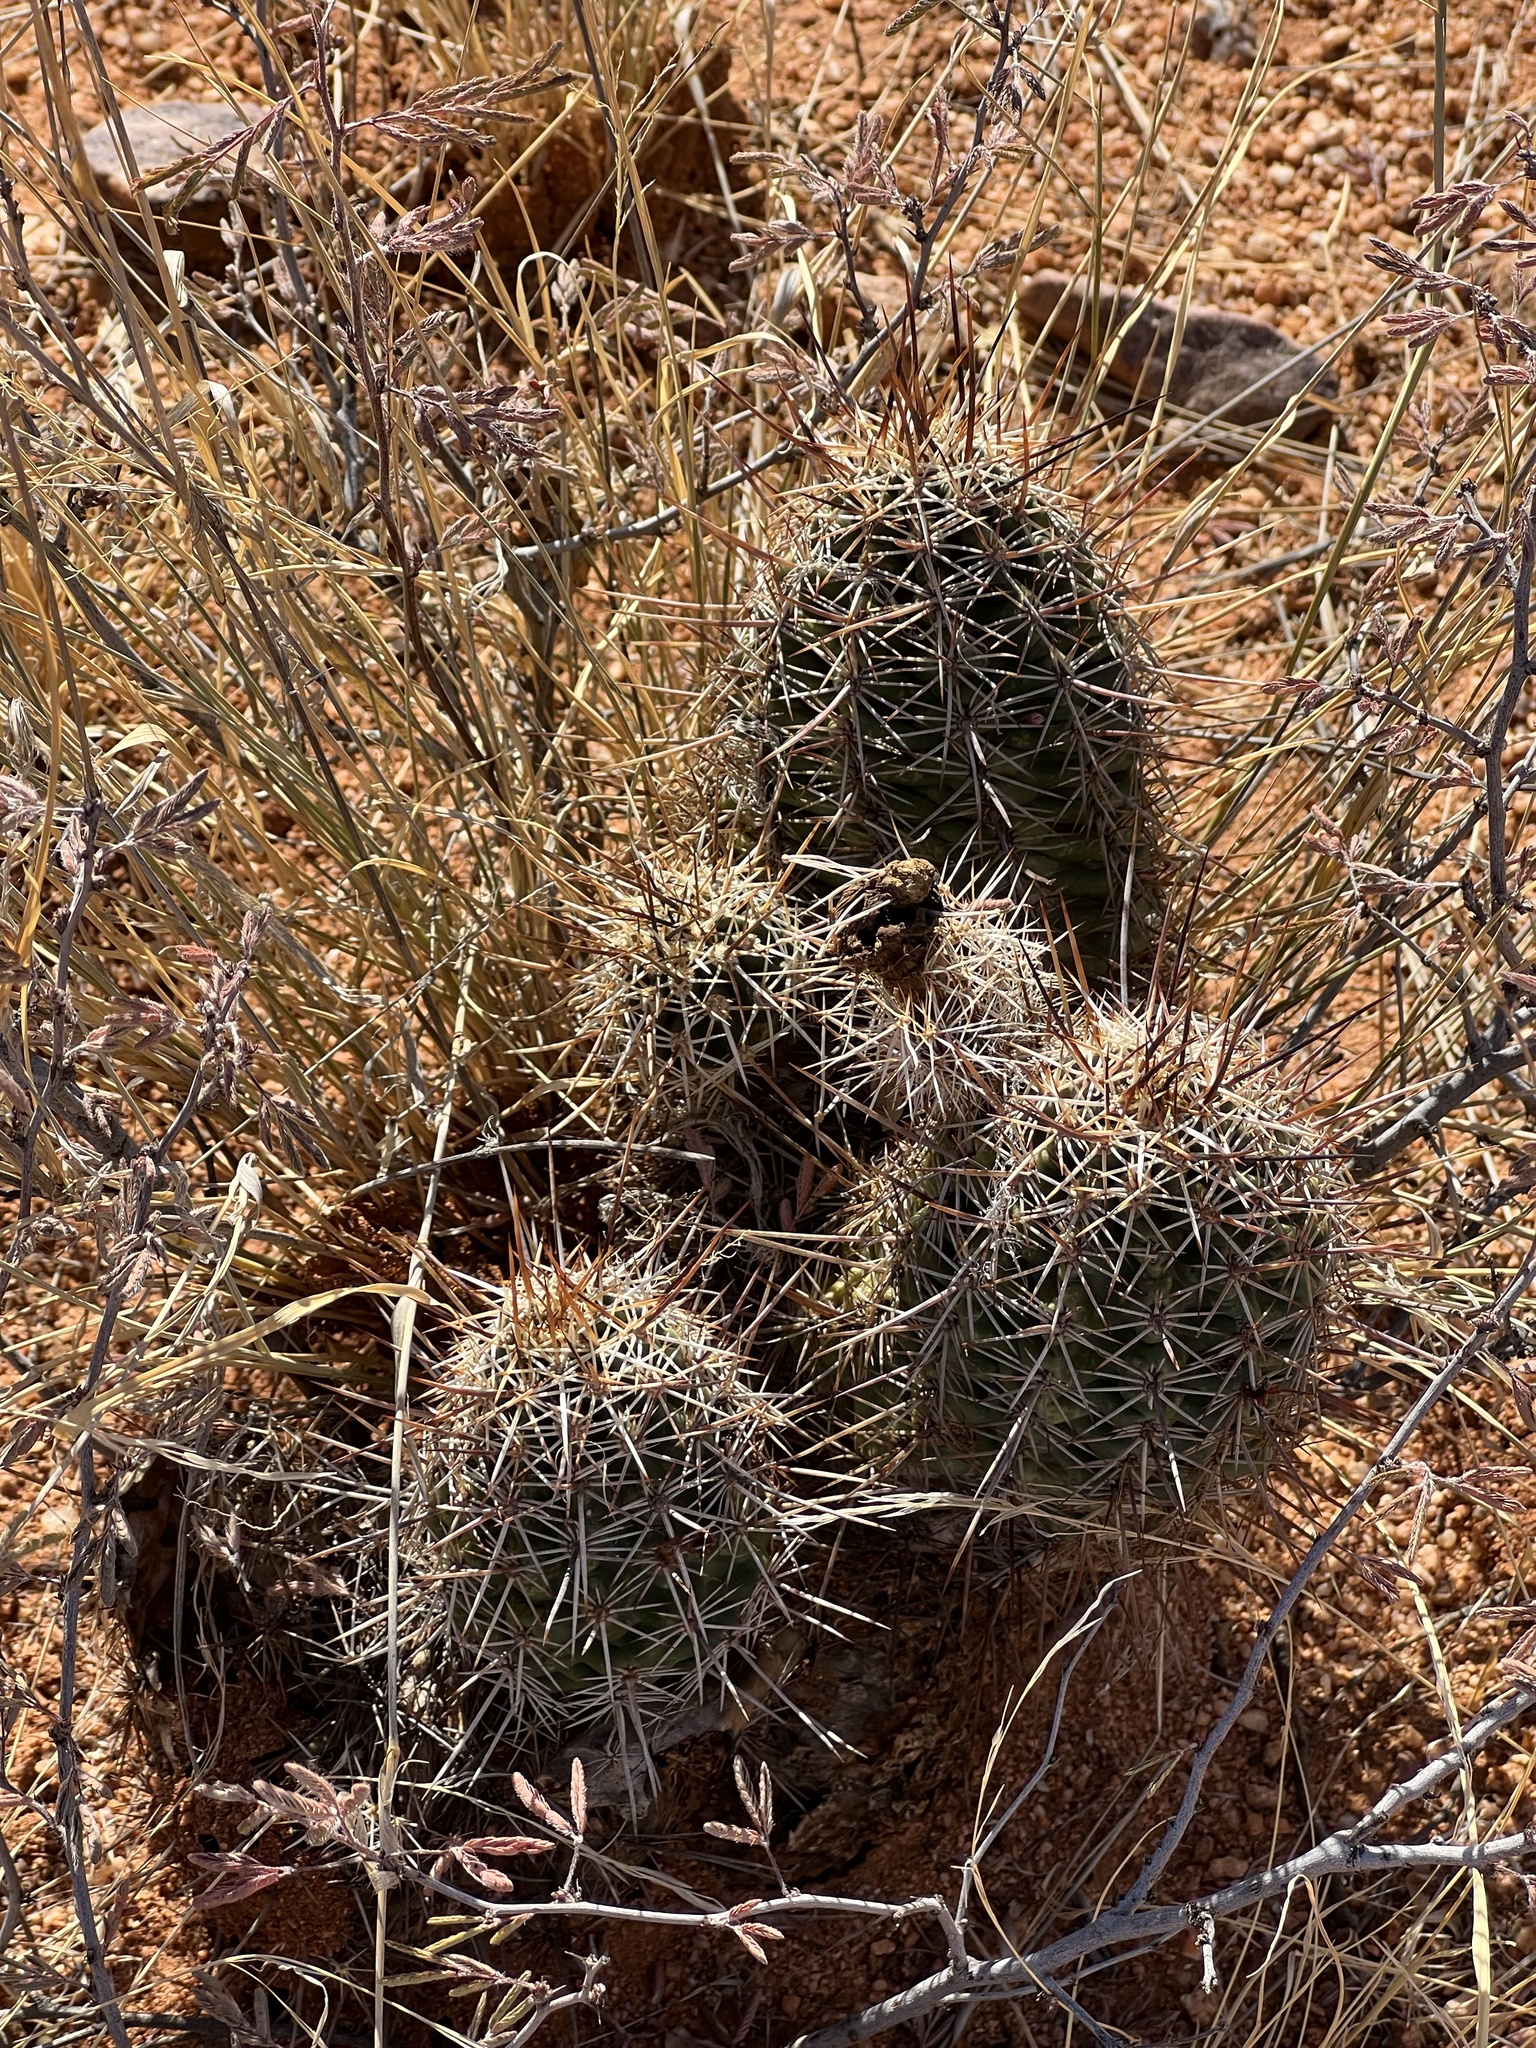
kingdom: Plantae
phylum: Tracheophyta
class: Magnoliopsida
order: Caryophyllales
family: Cactaceae
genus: Echinocereus
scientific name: Echinocereus fasciculatus
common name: Bundle hedgehog
